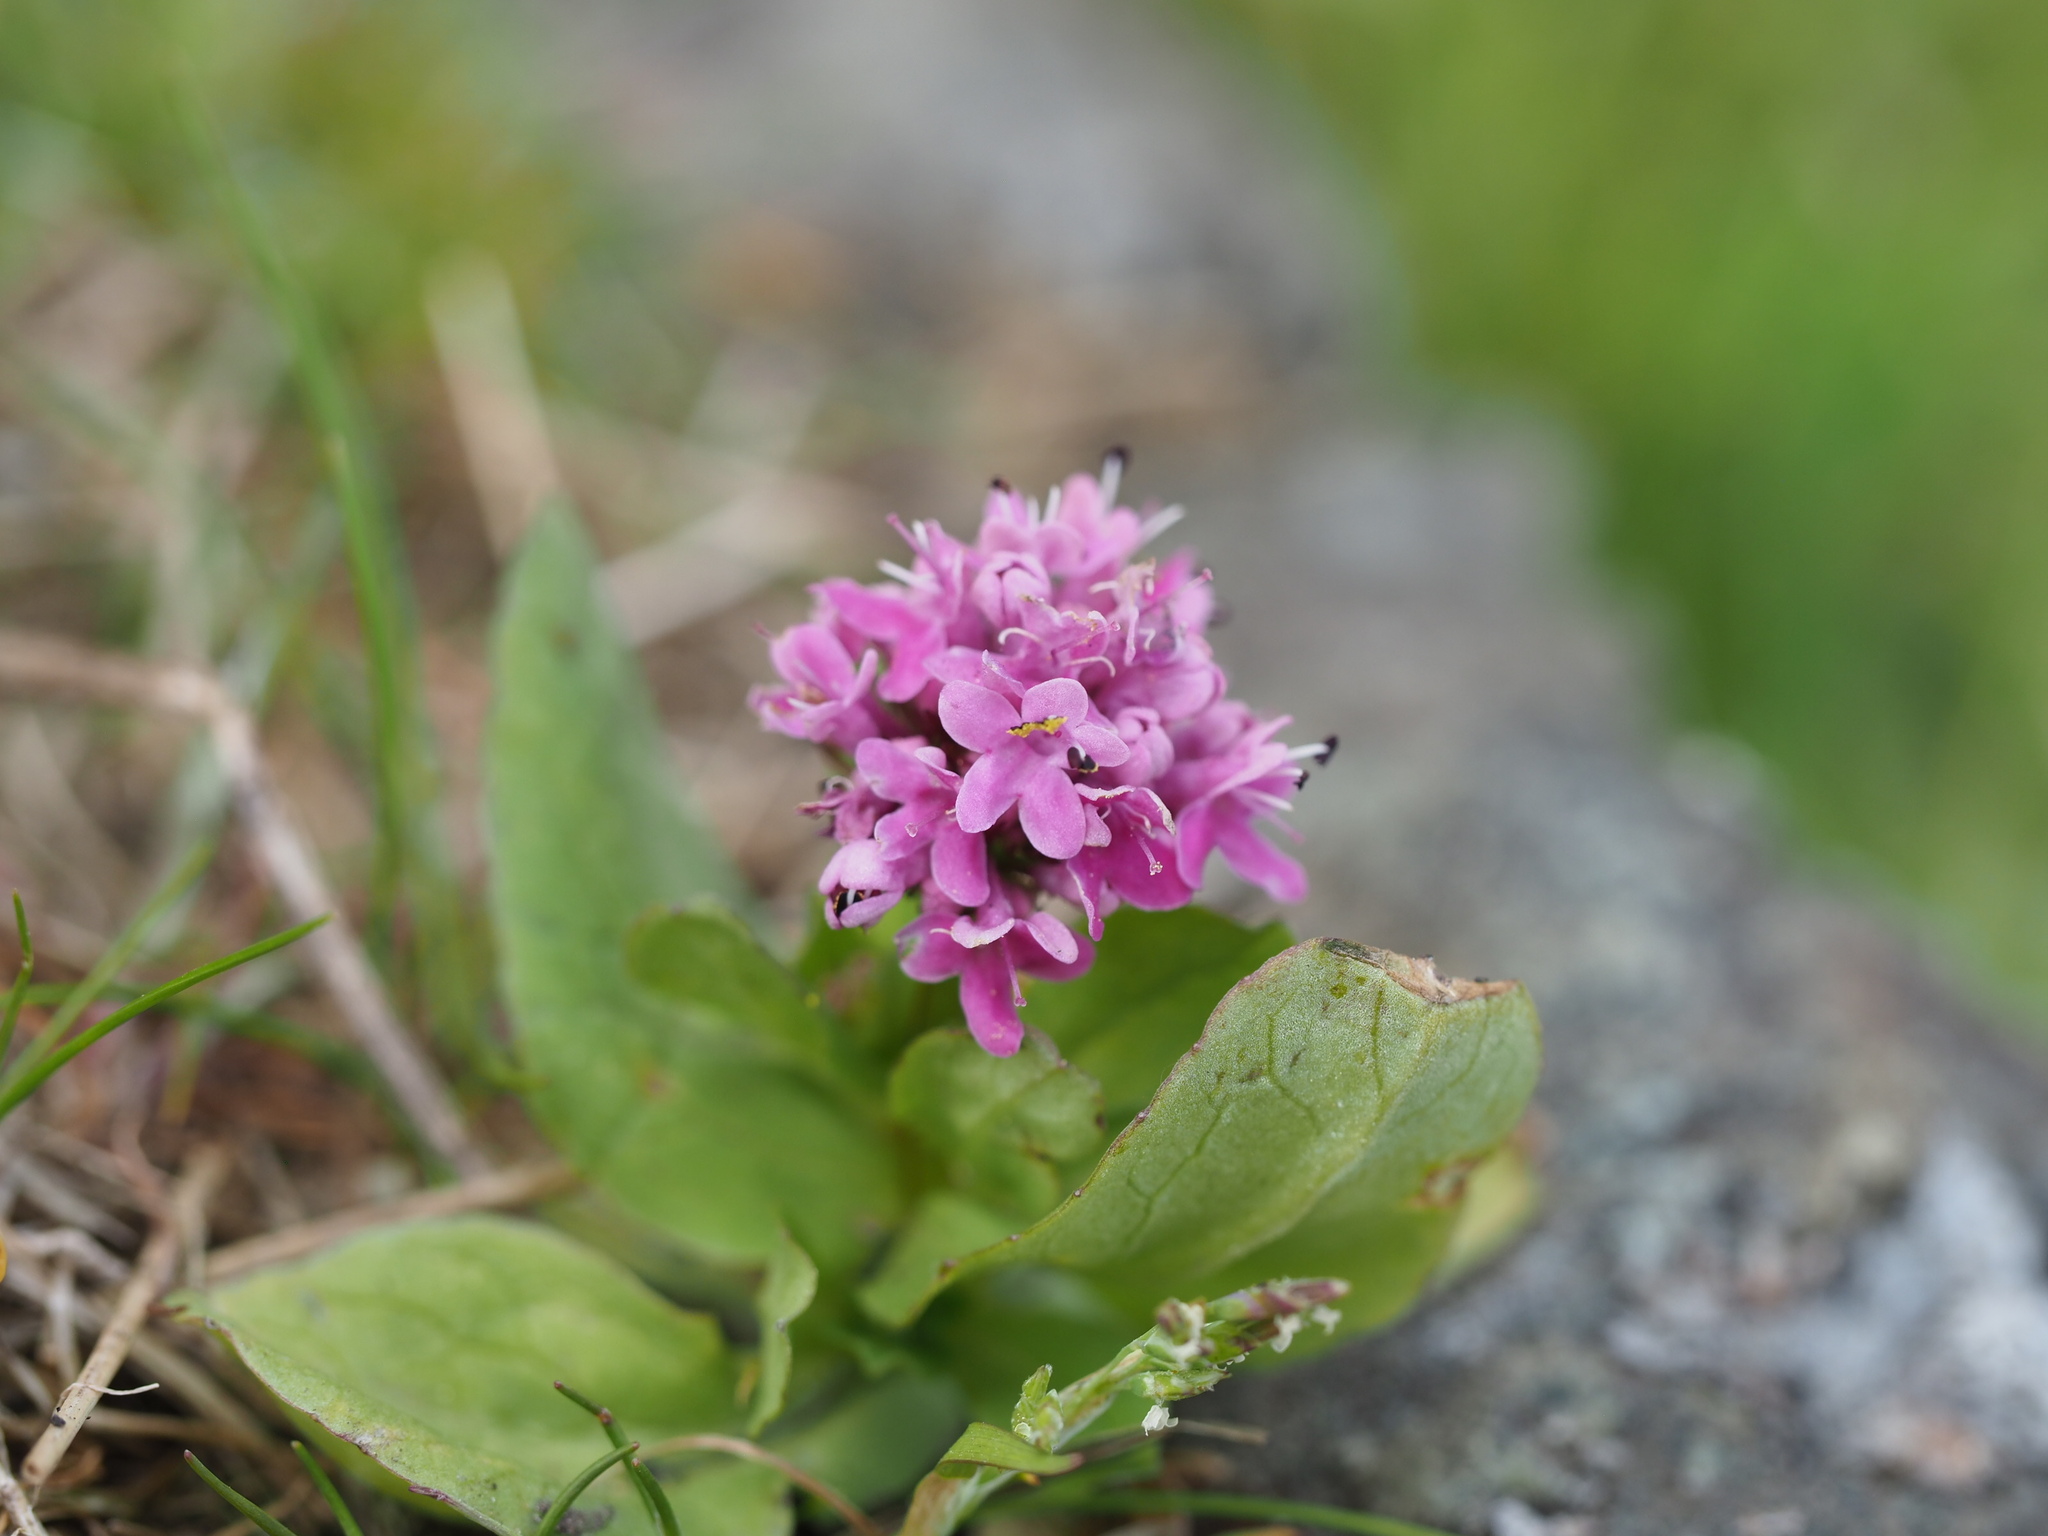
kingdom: Plantae
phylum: Tracheophyta
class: Magnoliopsida
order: Dipsacales
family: Caprifoliaceae
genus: Plectritis
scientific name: Plectritis congesta
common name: Pink plectritis
